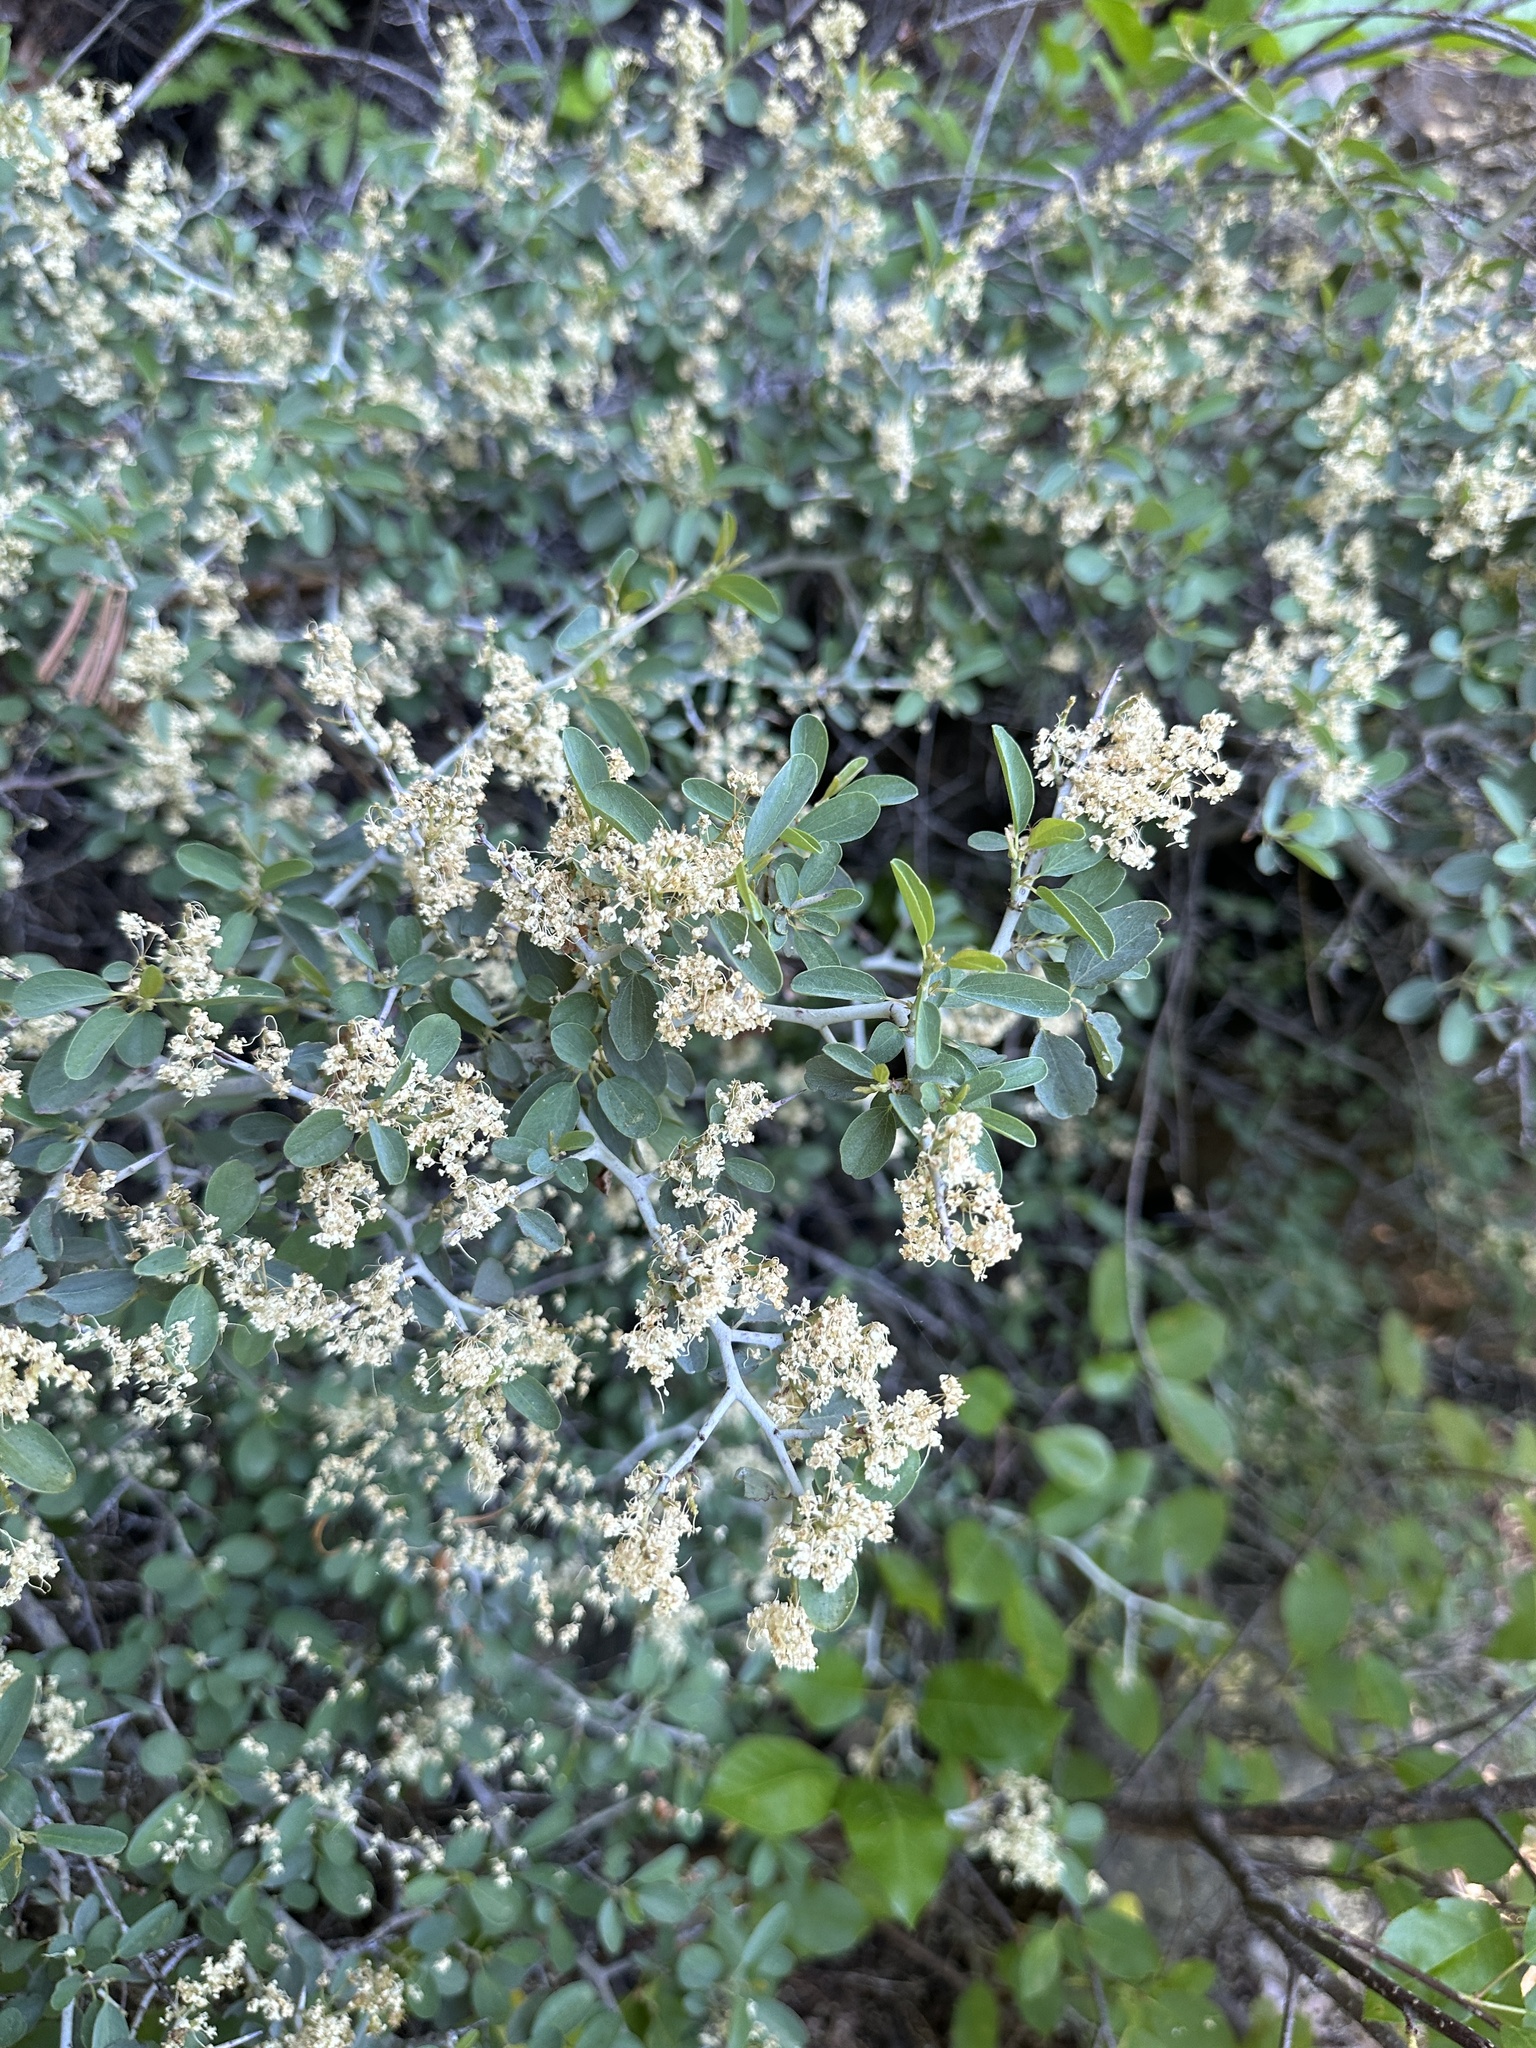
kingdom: Plantae
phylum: Tracheophyta
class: Magnoliopsida
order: Rosales
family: Rhamnaceae
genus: Ceanothus
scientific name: Ceanothus cordulatus
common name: Mountain whitethorn
